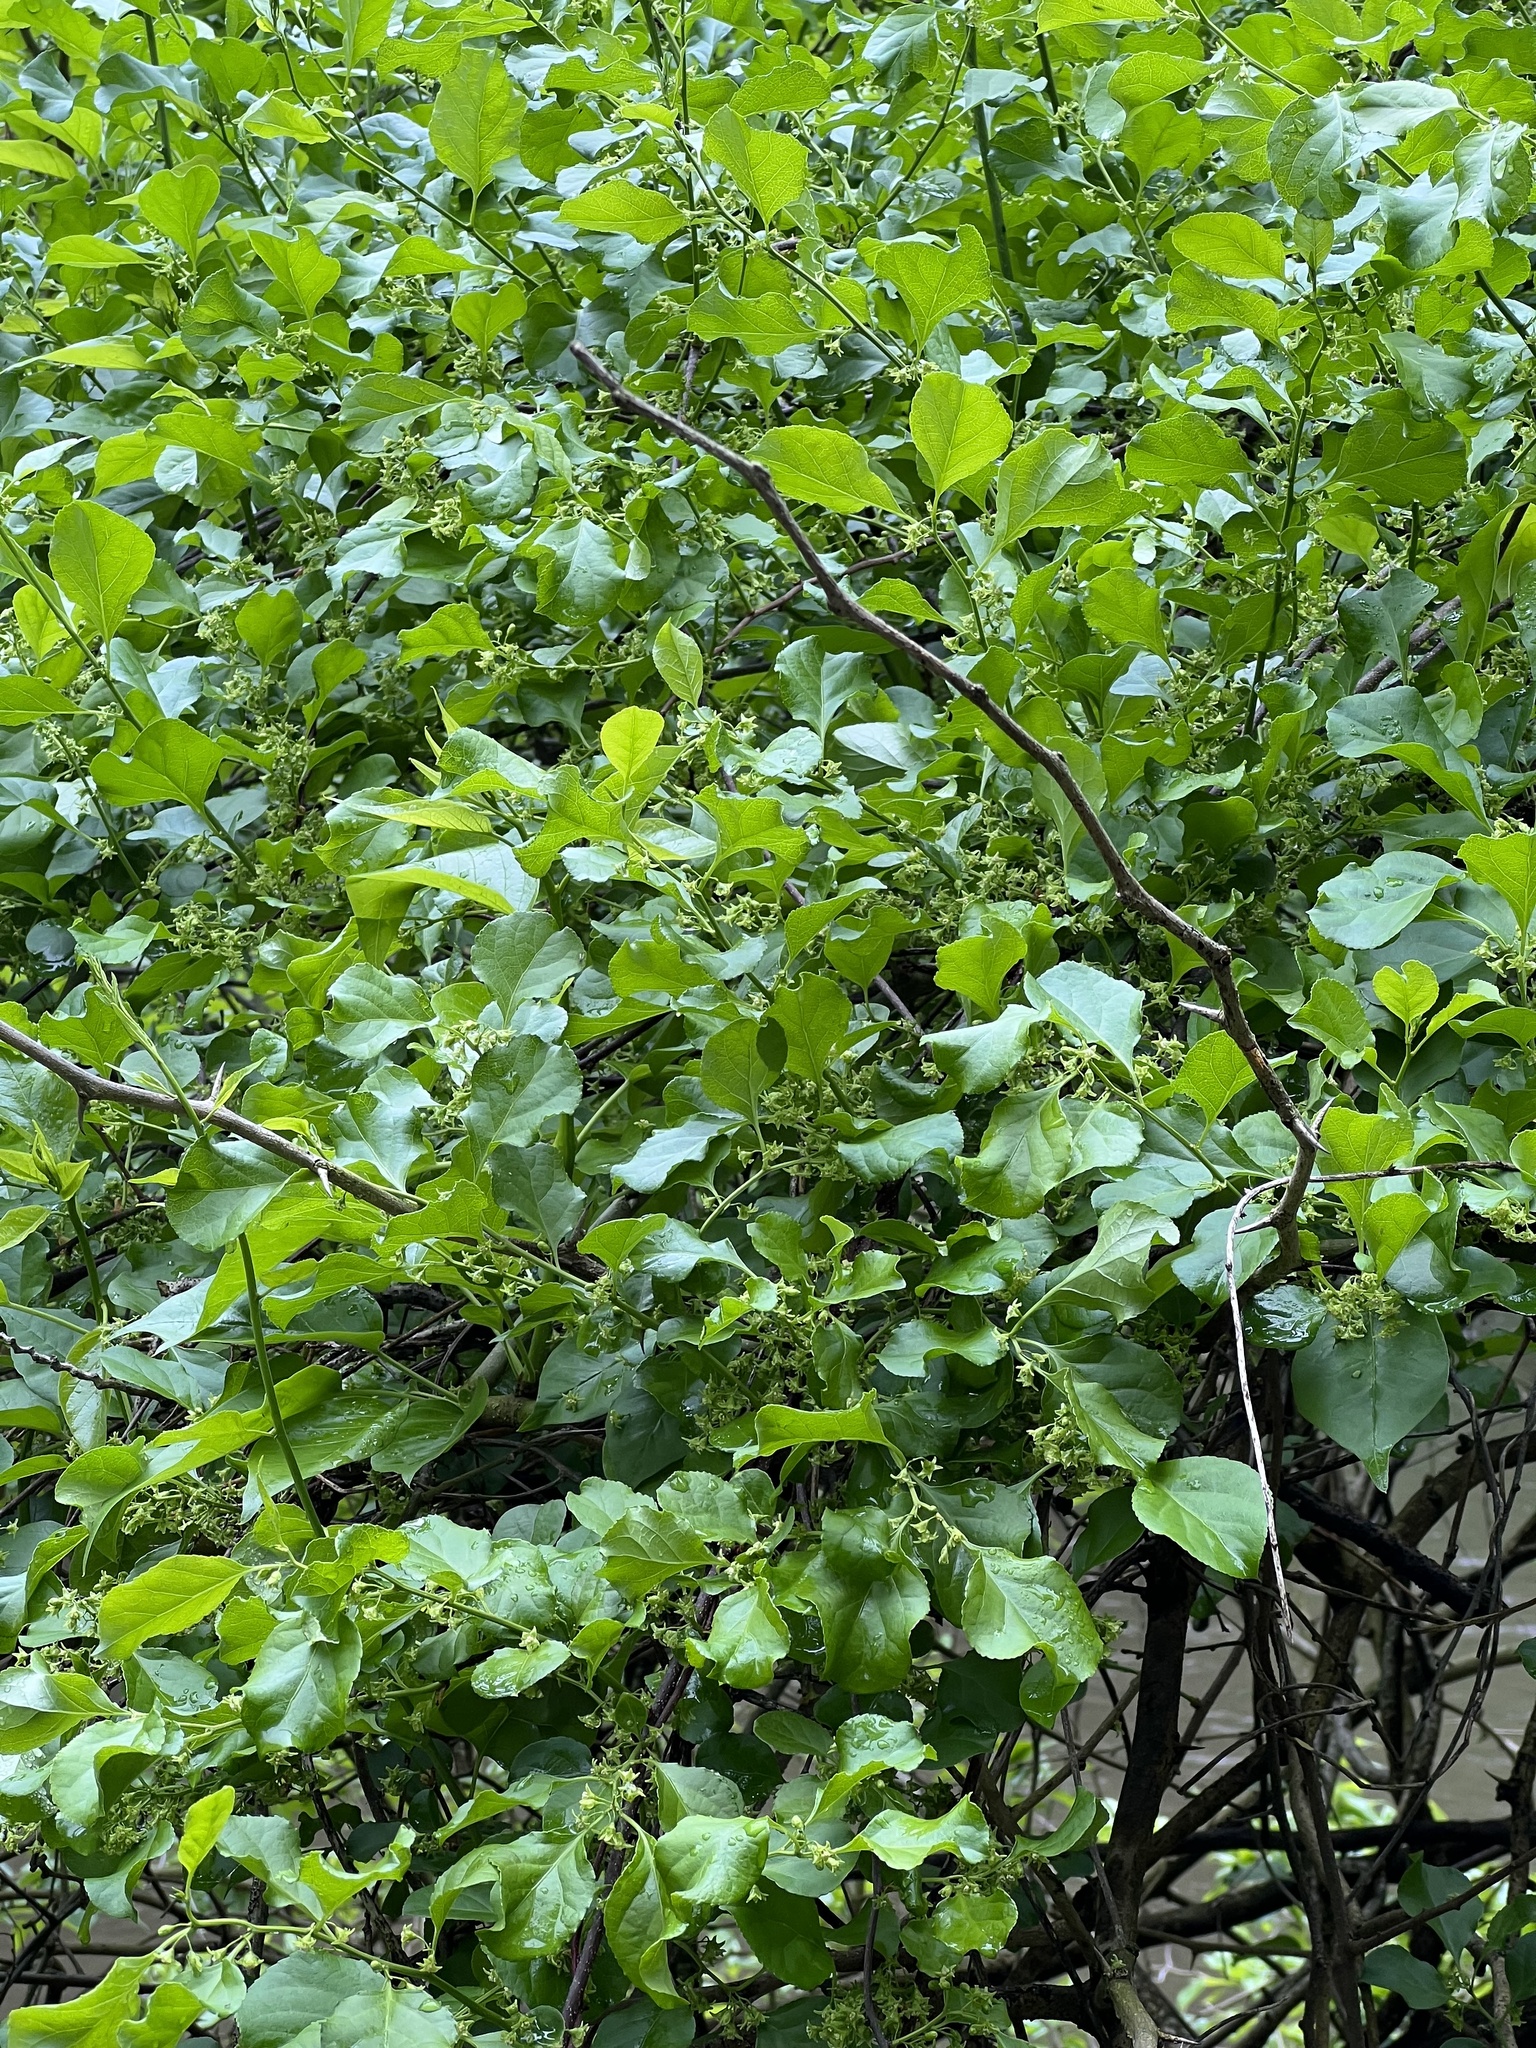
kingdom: Plantae
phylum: Tracheophyta
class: Magnoliopsida
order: Celastrales
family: Celastraceae
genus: Celastrus
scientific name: Celastrus orbiculatus
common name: Oriental bittersweet
